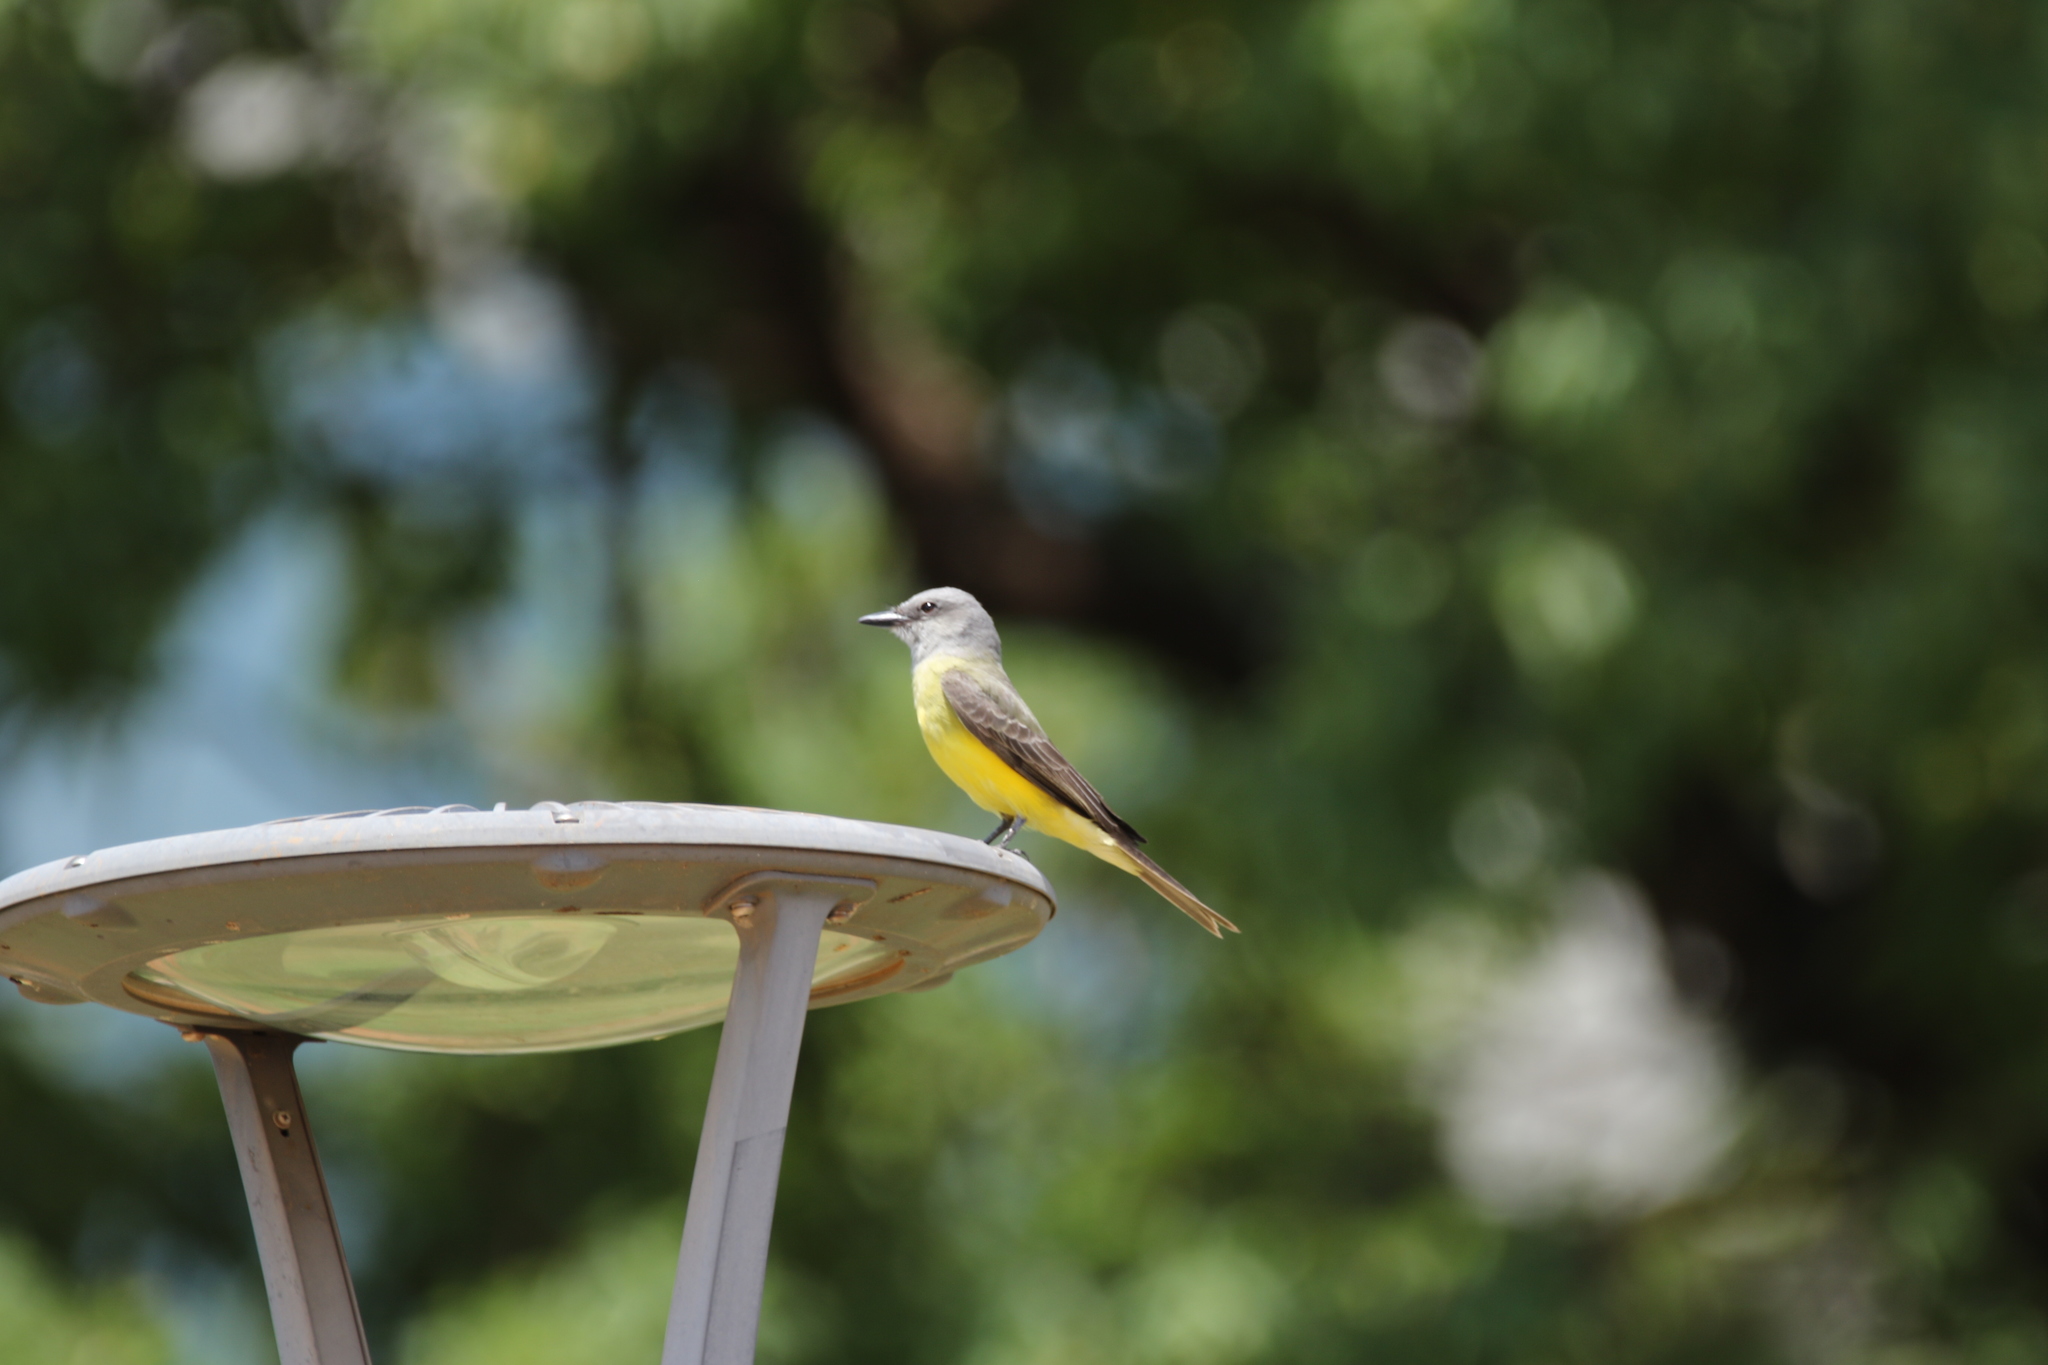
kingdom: Animalia
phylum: Chordata
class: Aves
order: Passeriformes
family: Tyrannidae
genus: Tyrannus
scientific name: Tyrannus melancholicus
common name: Tropical kingbird
